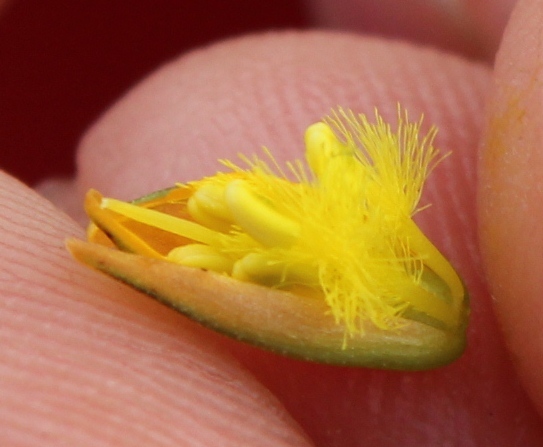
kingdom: Plantae
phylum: Tracheophyta
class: Liliopsida
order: Asparagales
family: Asphodelaceae
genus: Bulbine
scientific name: Bulbine favosa
